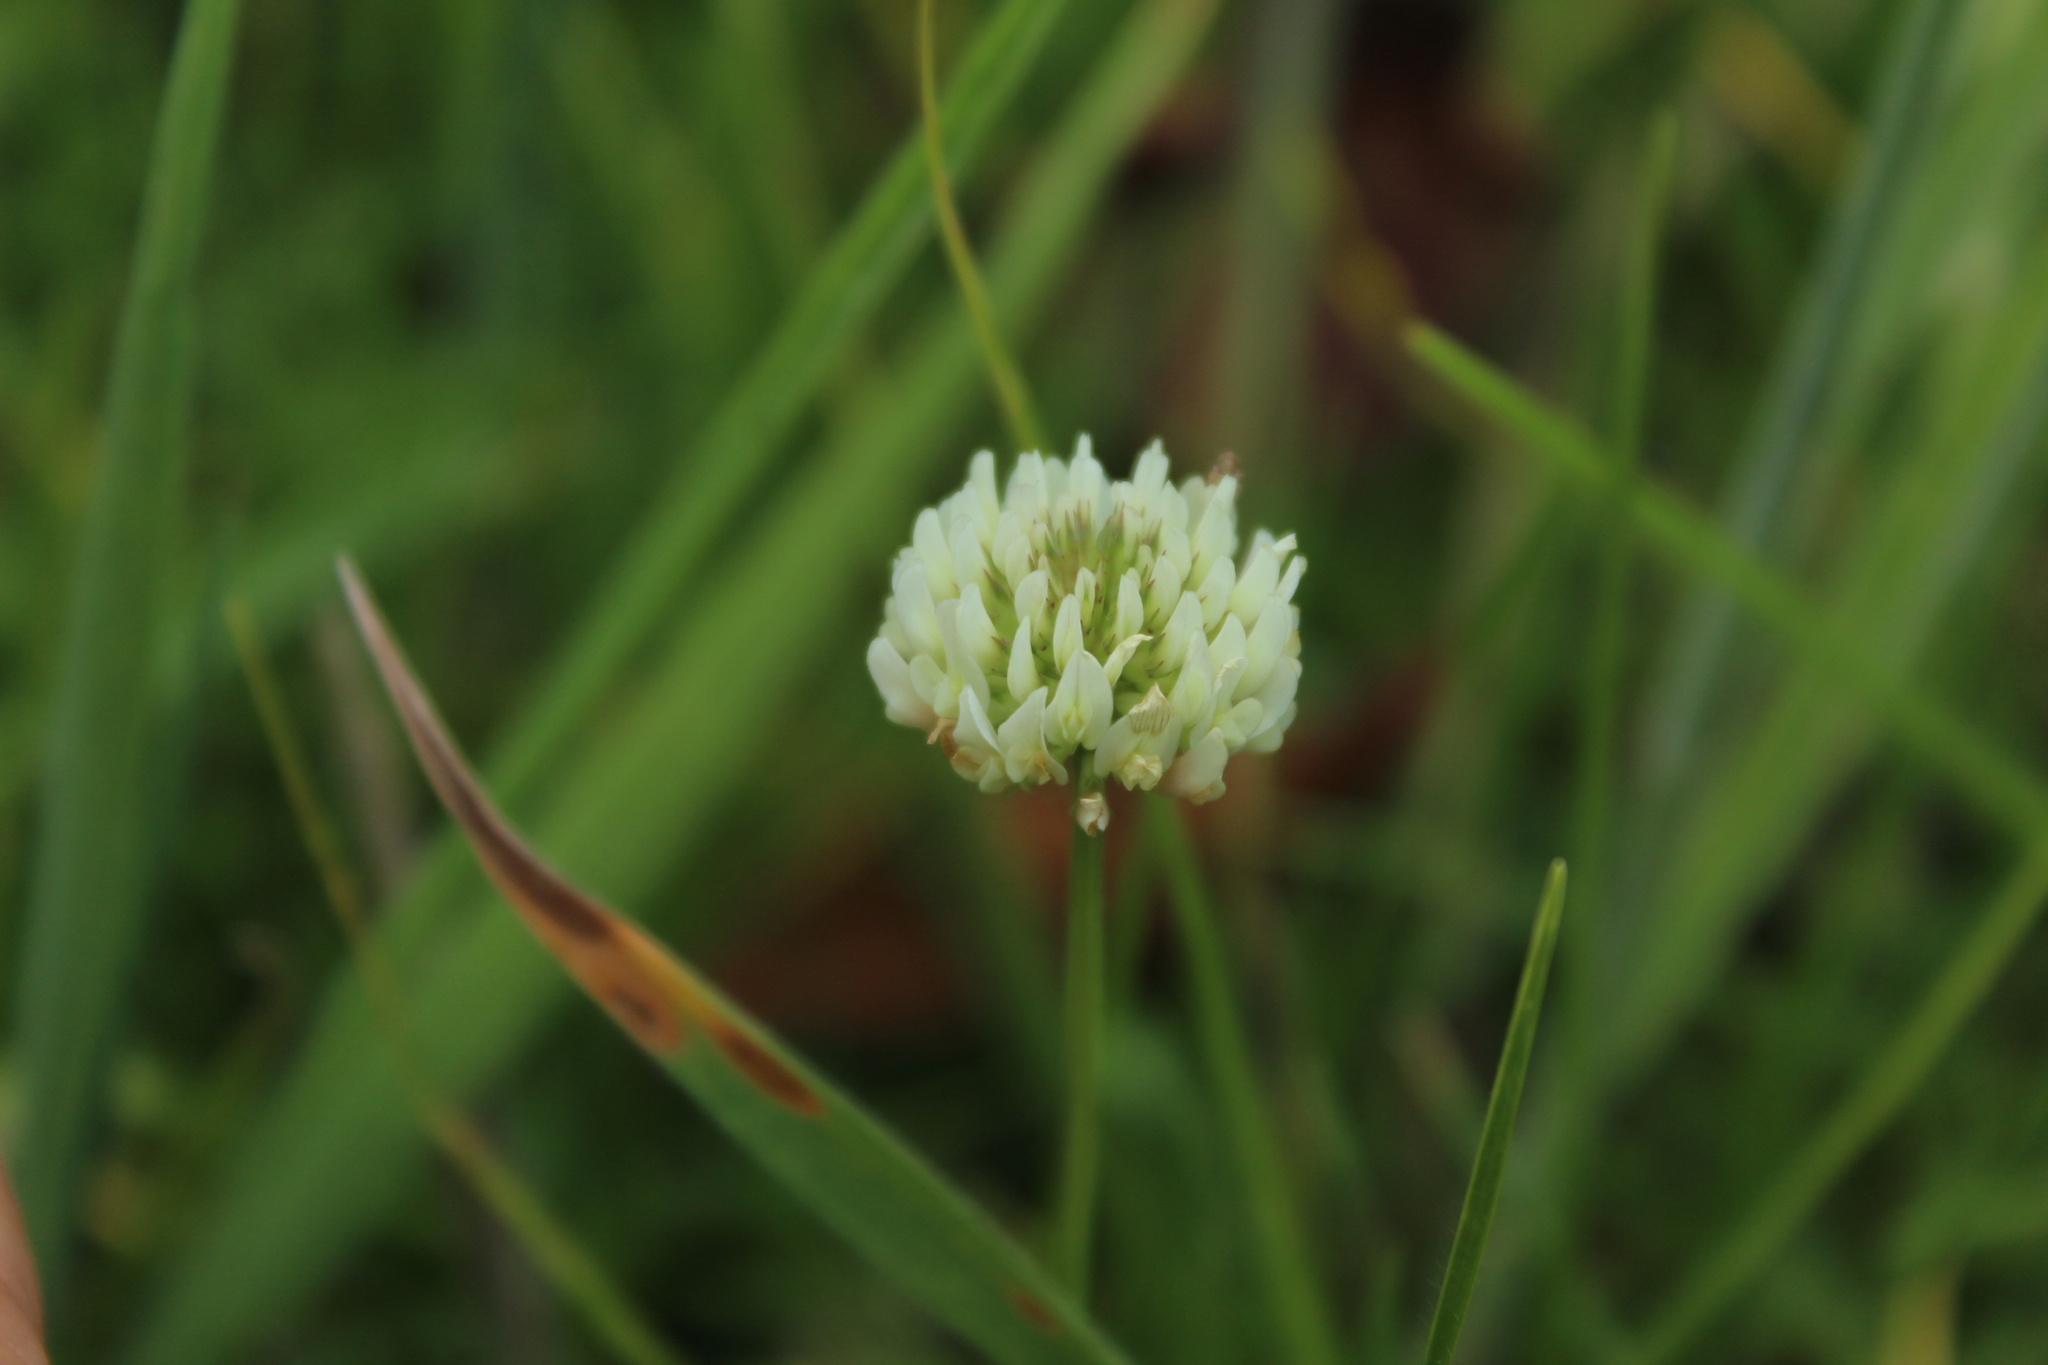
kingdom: Plantae
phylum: Tracheophyta
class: Magnoliopsida
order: Fabales
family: Fabaceae
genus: Trifolium
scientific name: Trifolium repens
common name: White clover
